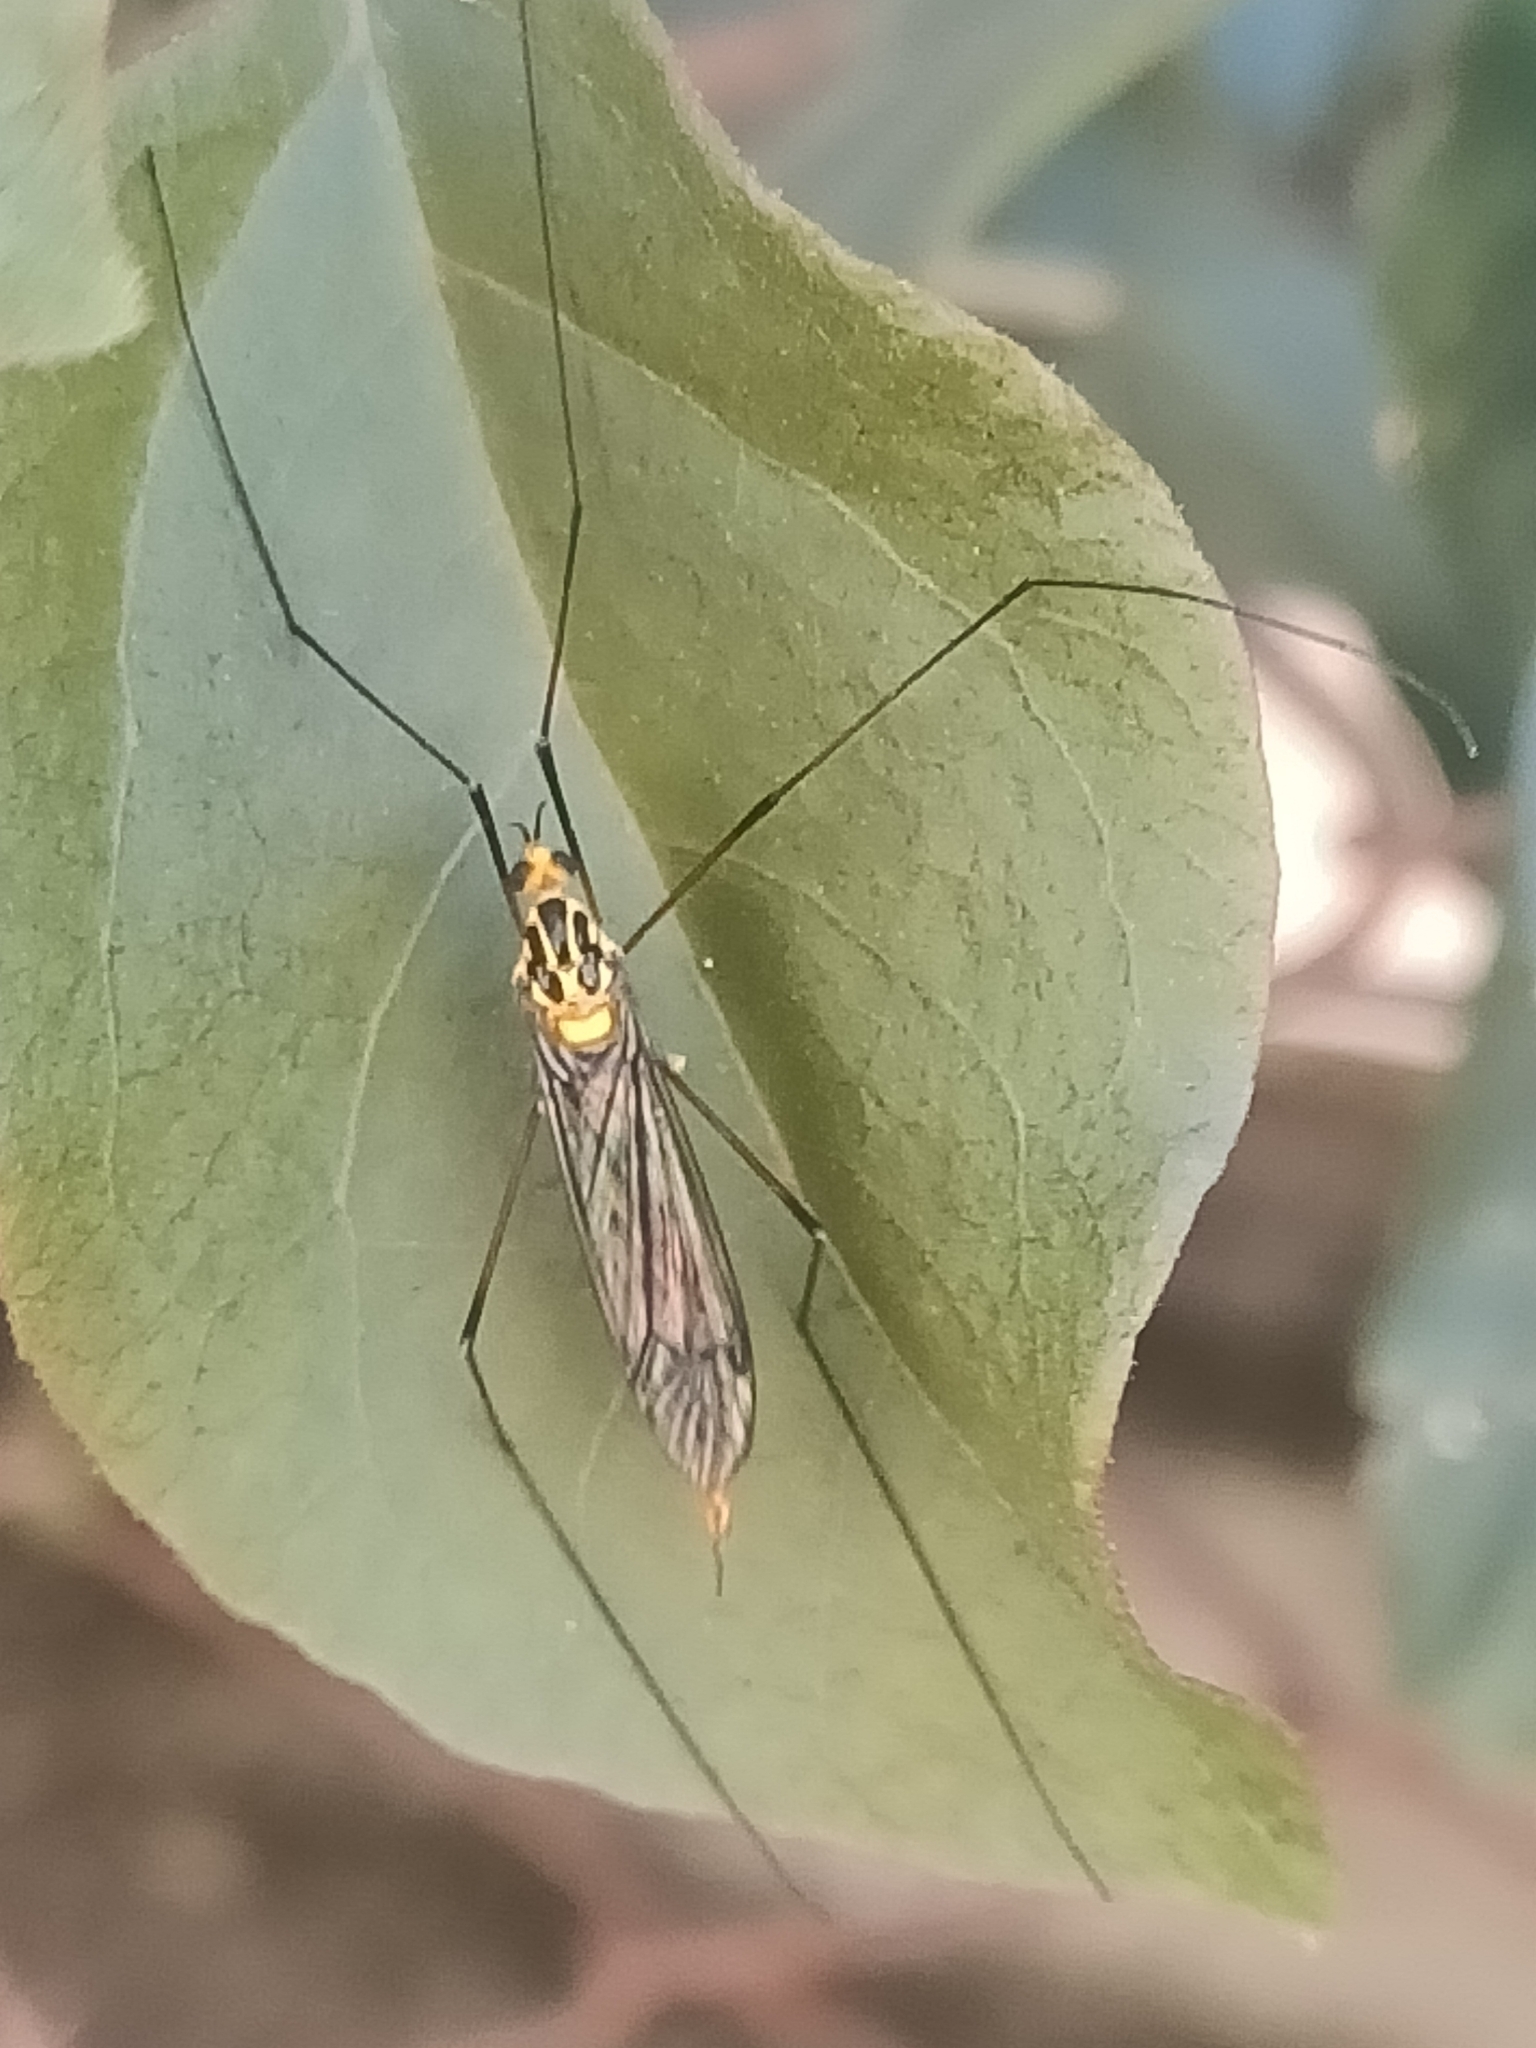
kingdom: Animalia
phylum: Arthropoda
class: Insecta
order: Diptera
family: Tipulidae
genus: Nephrotoma
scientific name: Nephrotoma australasiae
